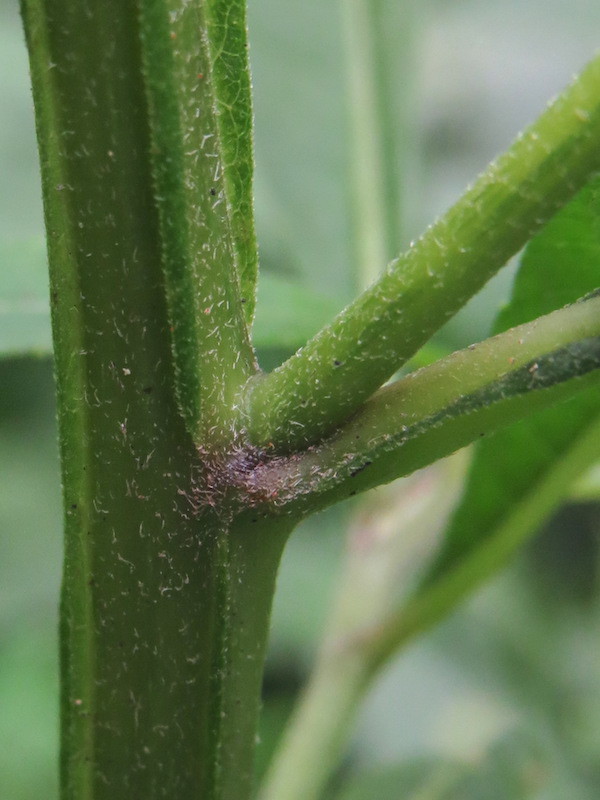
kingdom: Plantae
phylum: Tracheophyta
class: Magnoliopsida
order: Asterales
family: Asteraceae
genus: Verbesina
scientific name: Verbesina alternifolia
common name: Wingstem
